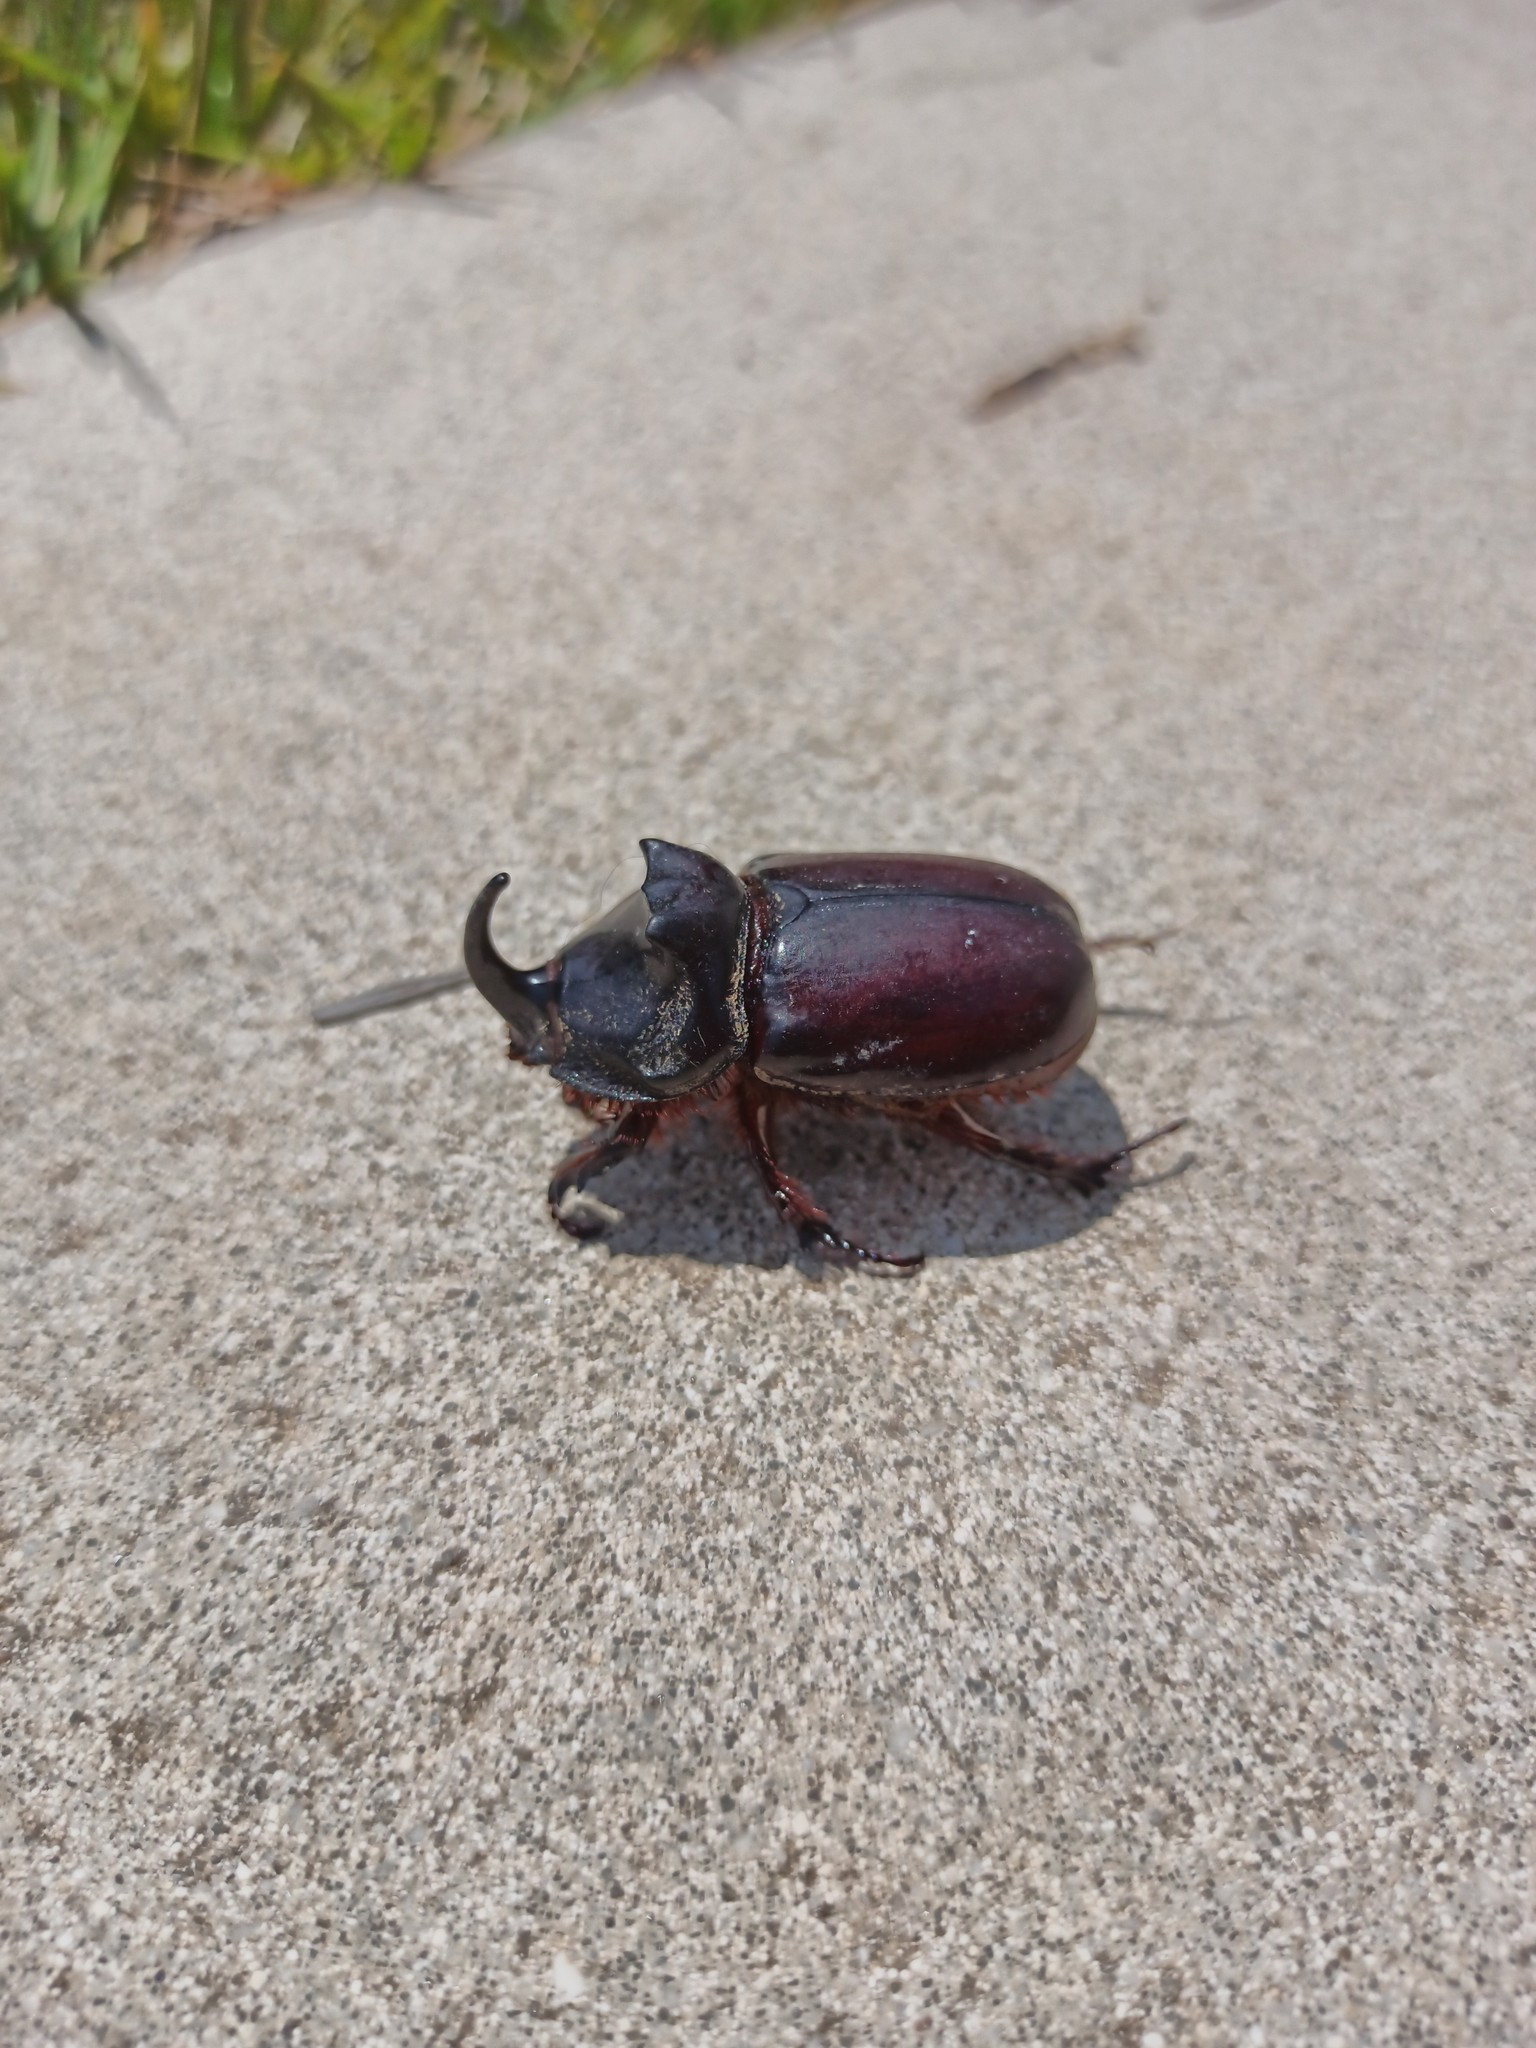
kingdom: Animalia
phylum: Arthropoda
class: Insecta
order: Coleoptera
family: Scarabaeidae
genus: Oryctes
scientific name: Oryctes nasicornis
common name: European rhinoceros beetle
